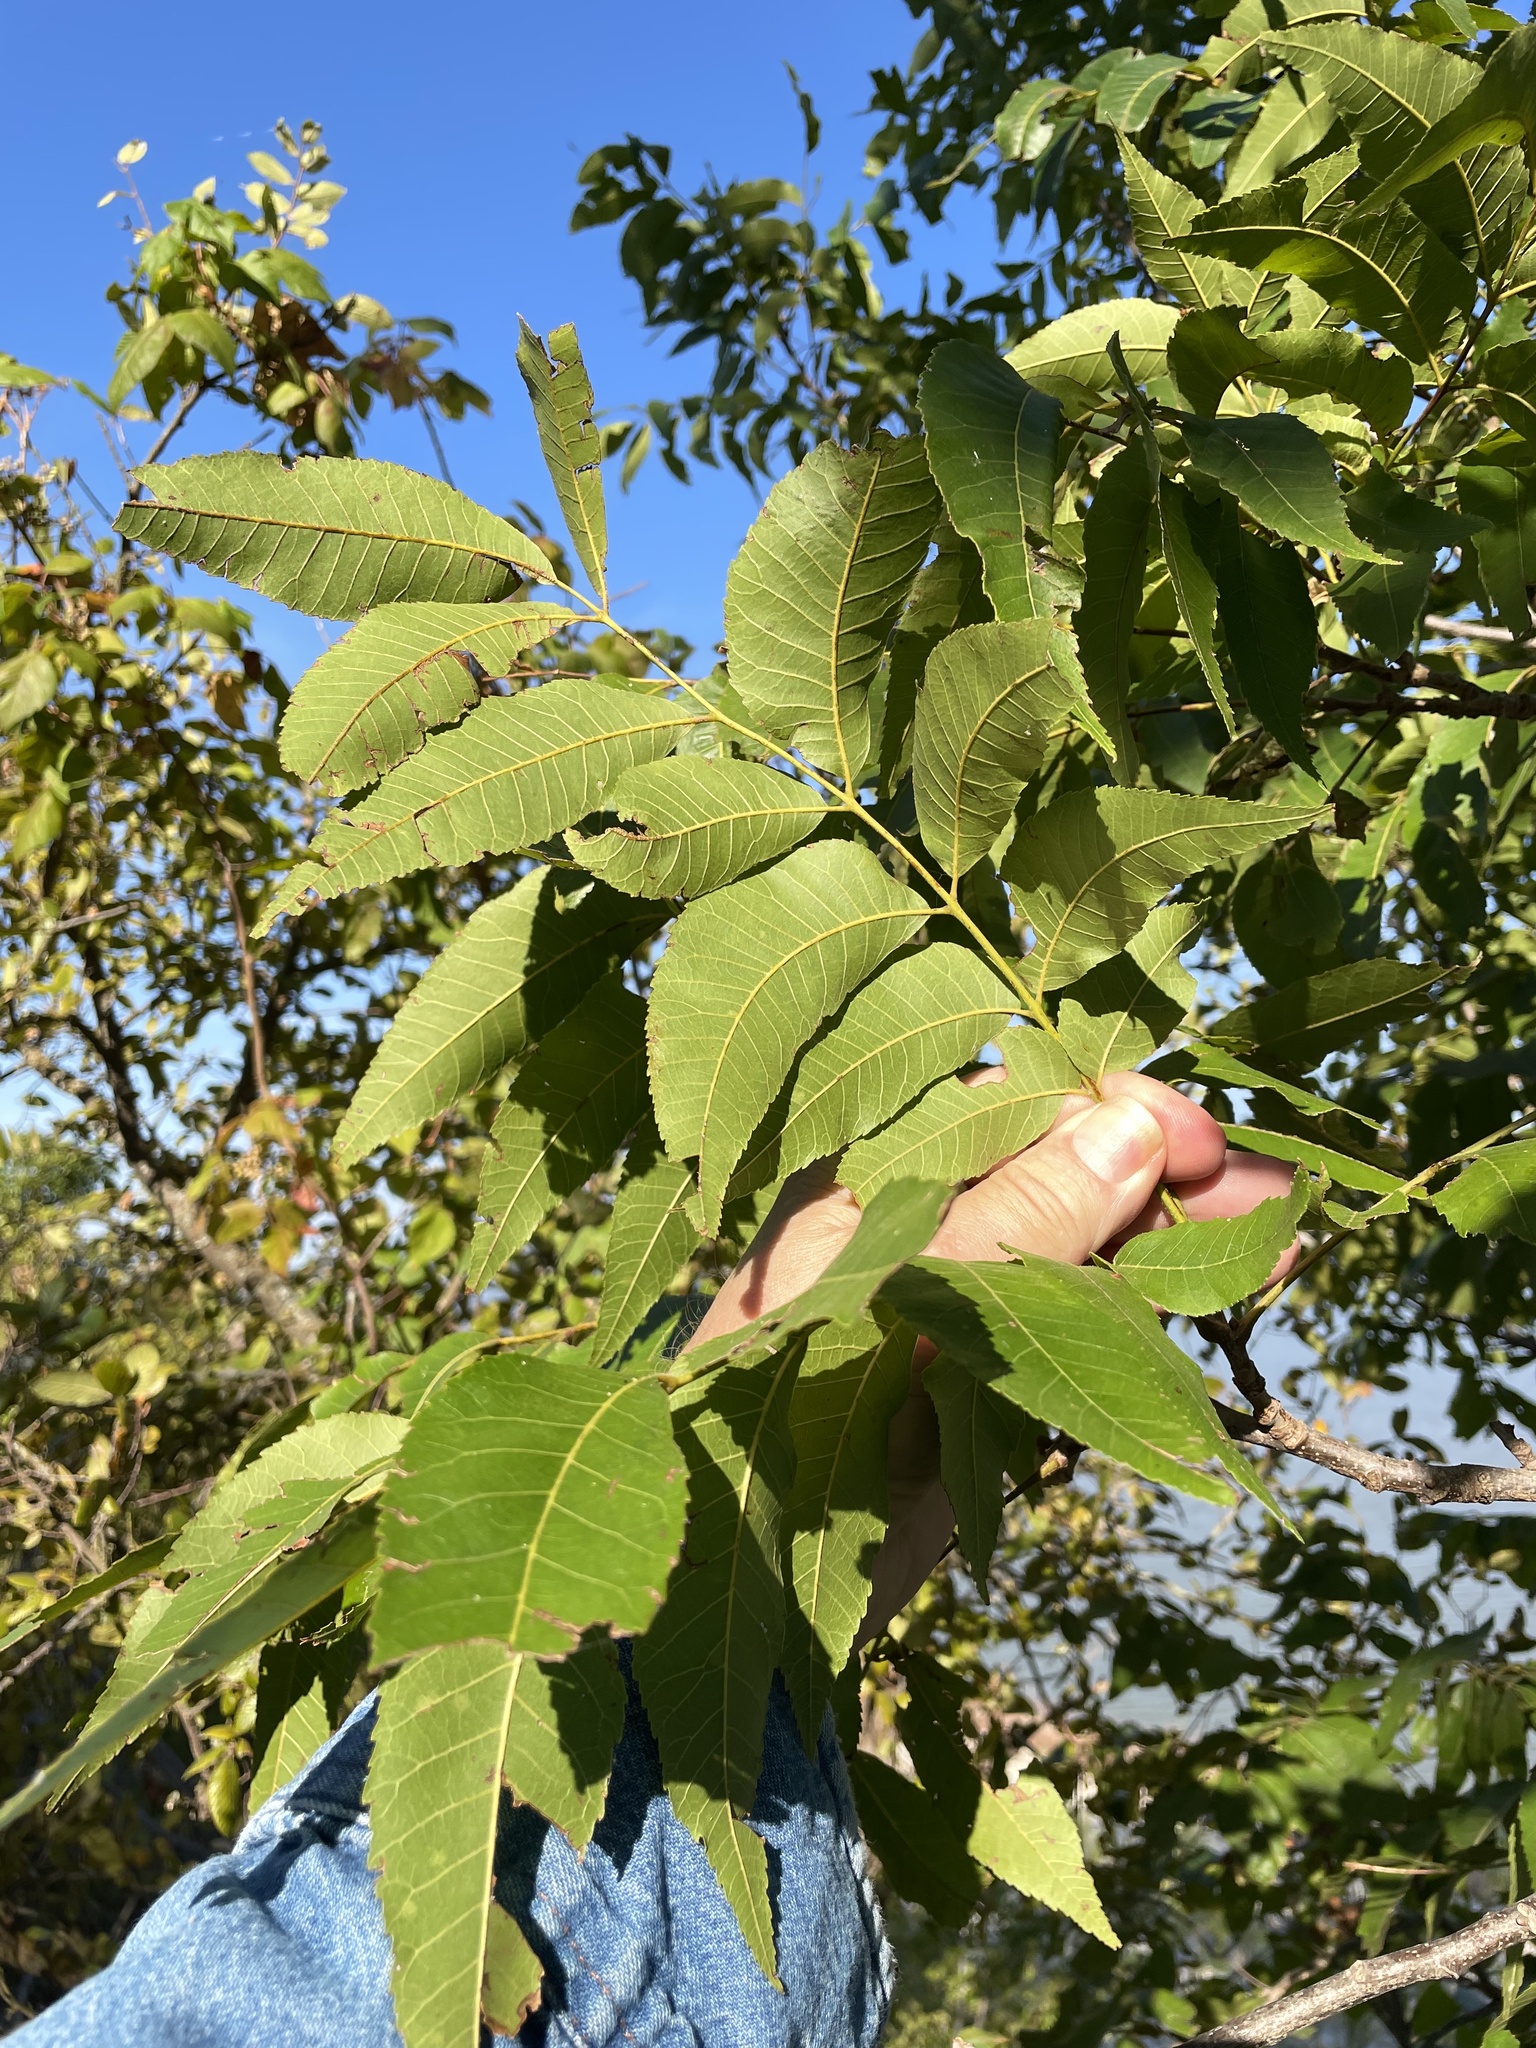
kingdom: Plantae
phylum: Tracheophyta
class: Magnoliopsida
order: Fagales
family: Juglandaceae
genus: Carya
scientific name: Carya illinoinensis
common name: Pecan
